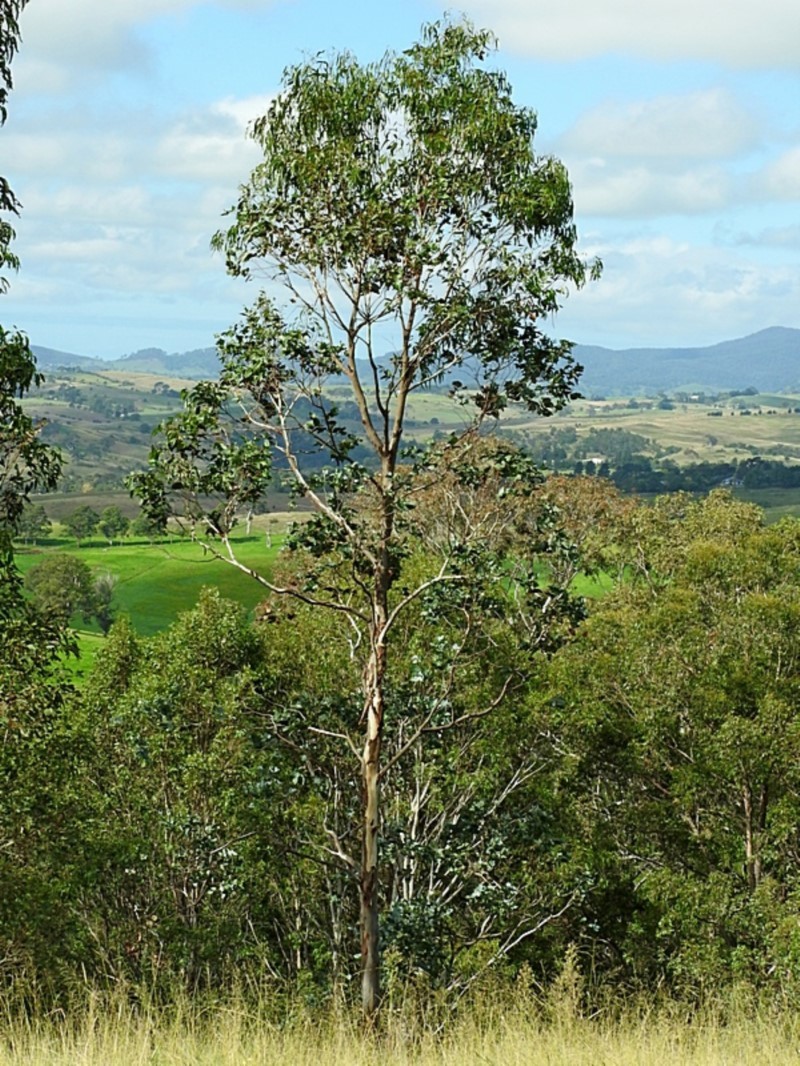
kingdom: Plantae
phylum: Tracheophyta
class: Magnoliopsida
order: Myrtales
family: Myrtaceae
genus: Eucalyptus
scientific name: Eucalyptus globulus
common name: Southern blue-gum
